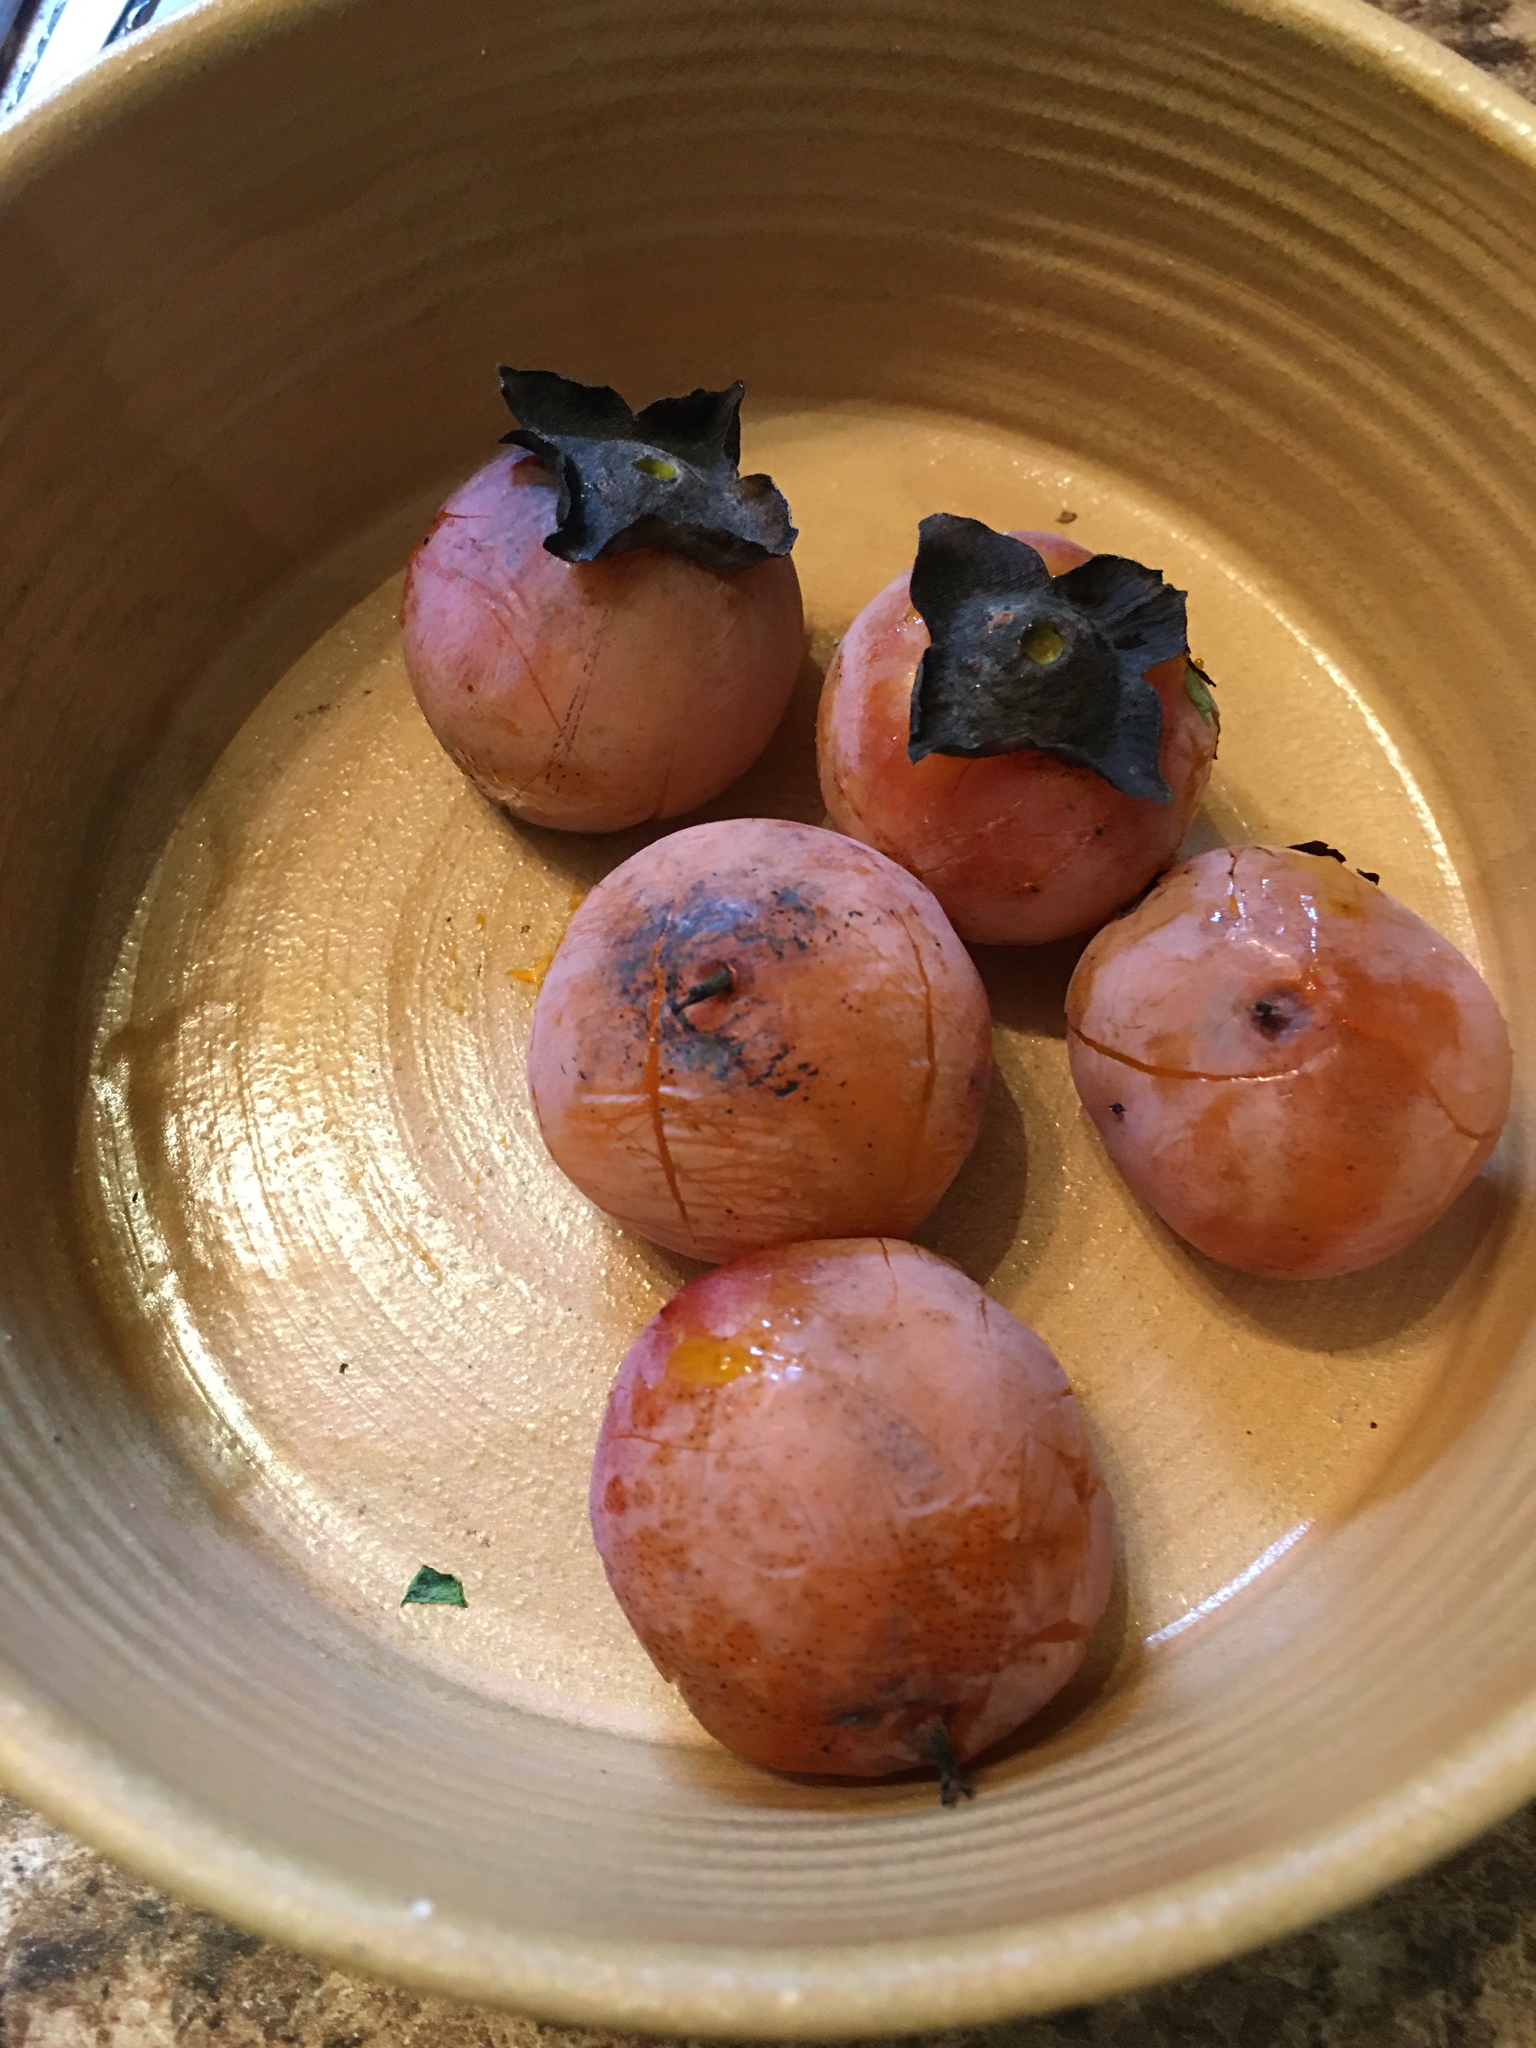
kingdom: Plantae
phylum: Tracheophyta
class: Magnoliopsida
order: Ericales
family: Ebenaceae
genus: Diospyros
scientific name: Diospyros virginiana
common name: Persimmon
